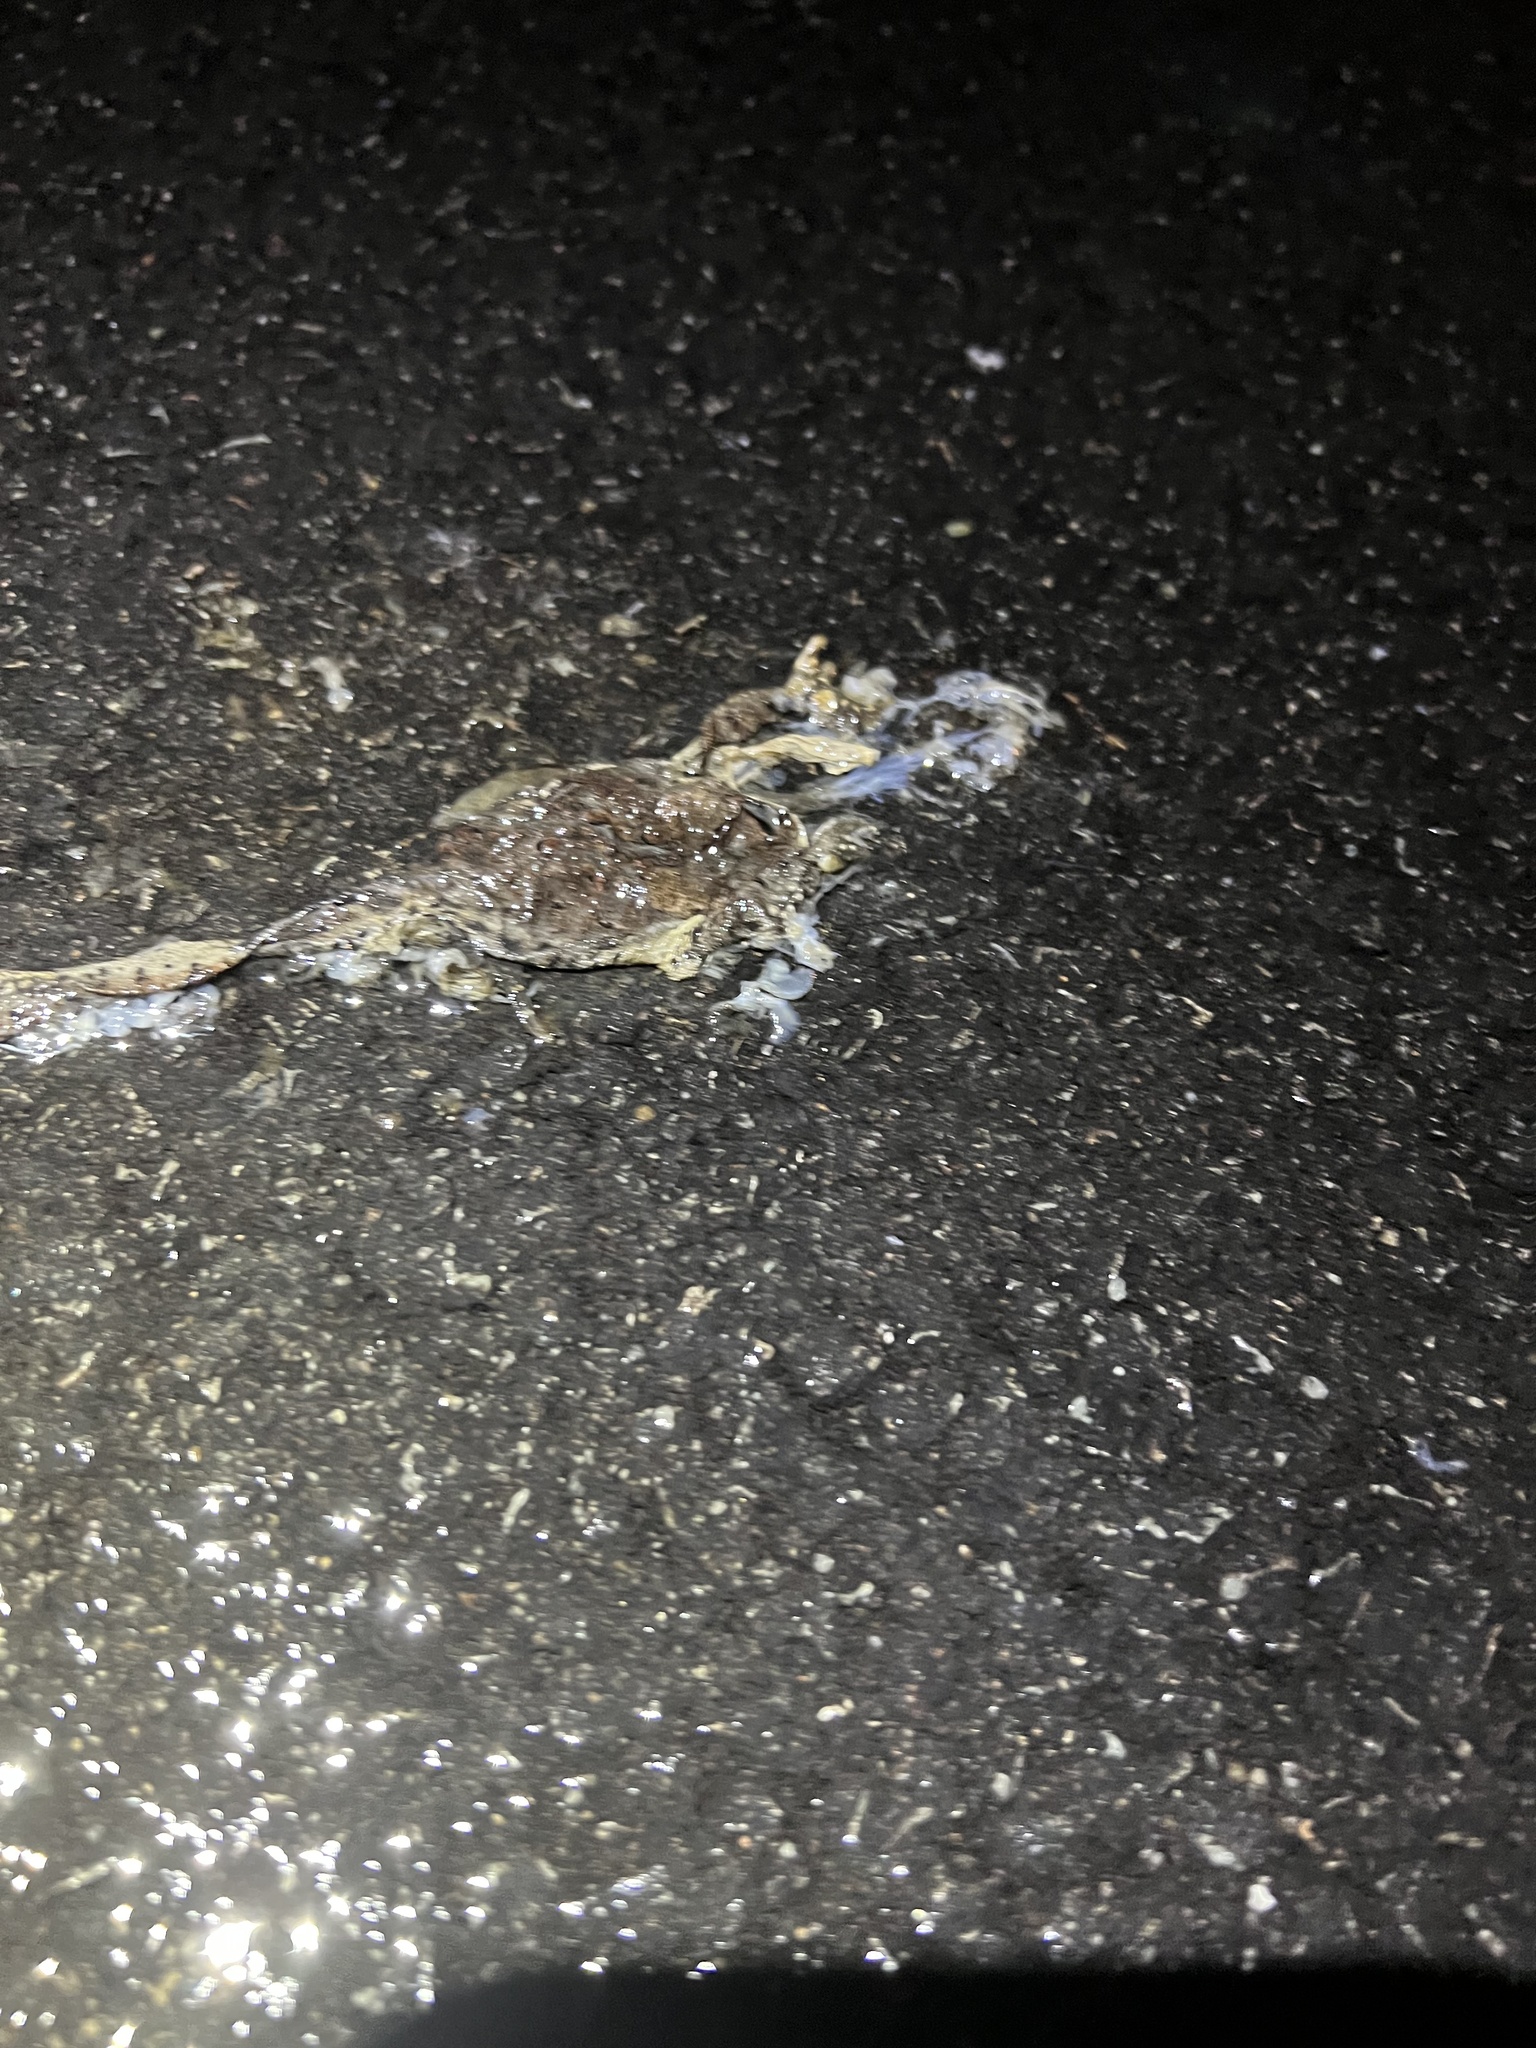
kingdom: Animalia
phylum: Chordata
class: Amphibia
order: Anura
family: Hylidae
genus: Dryophytes
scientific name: Dryophytes versicolor
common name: Gray treefrog
